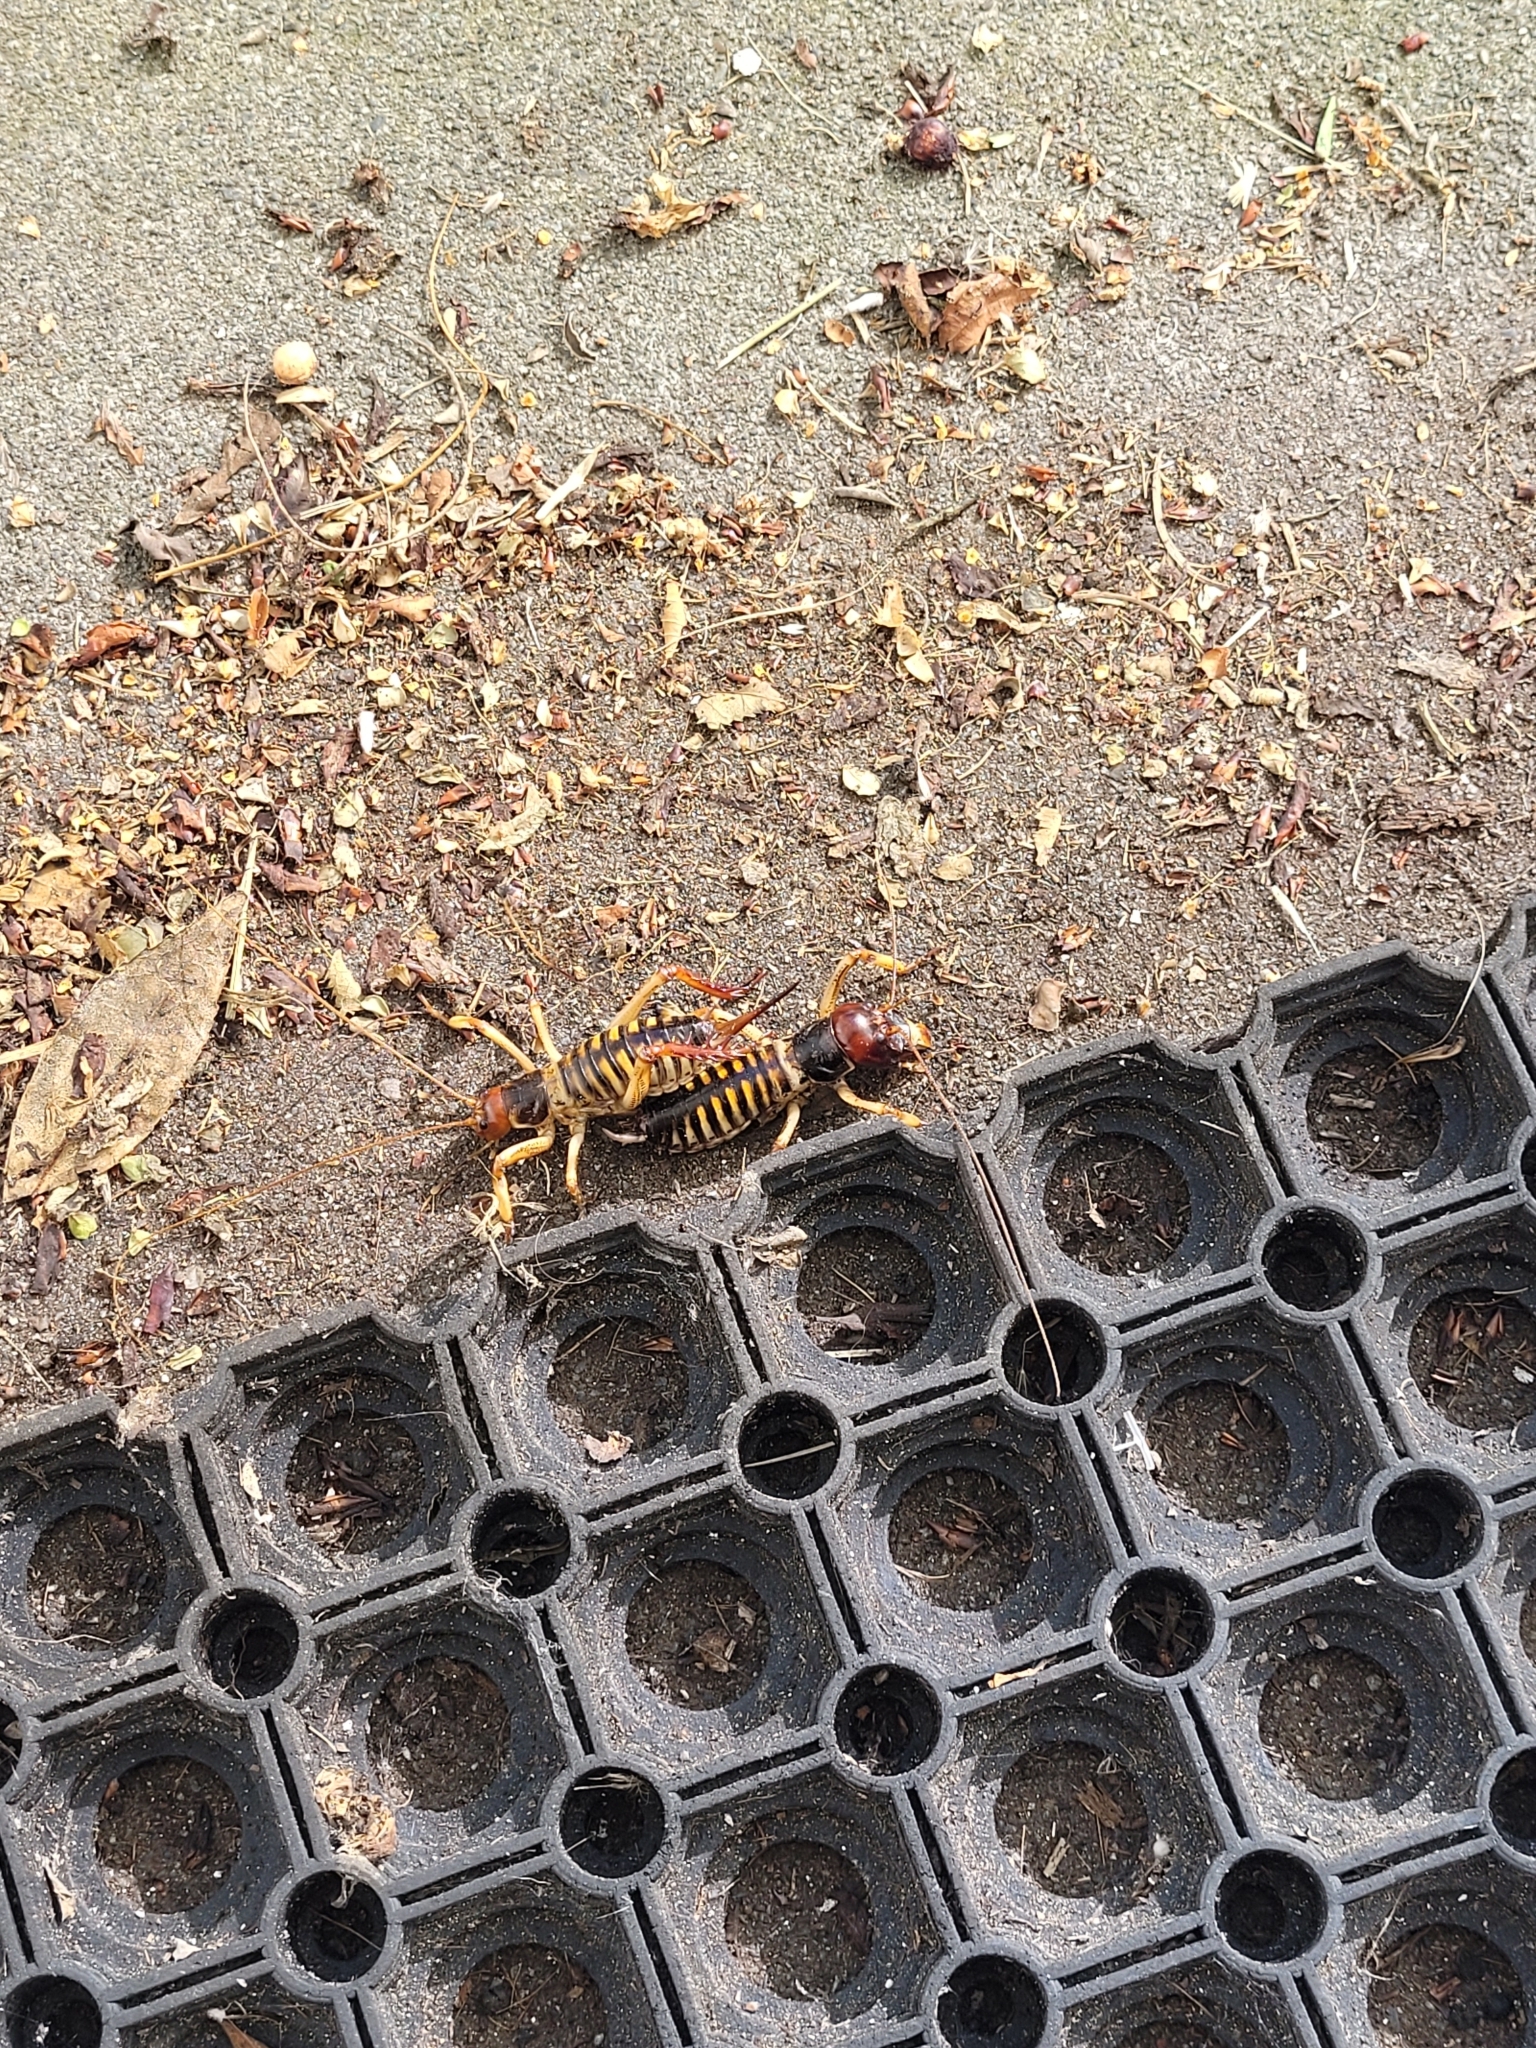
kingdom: Animalia
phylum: Arthropoda
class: Insecta
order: Orthoptera
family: Anostostomatidae
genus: Hemideina
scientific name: Hemideina crassidens
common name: Wellington tree weta
